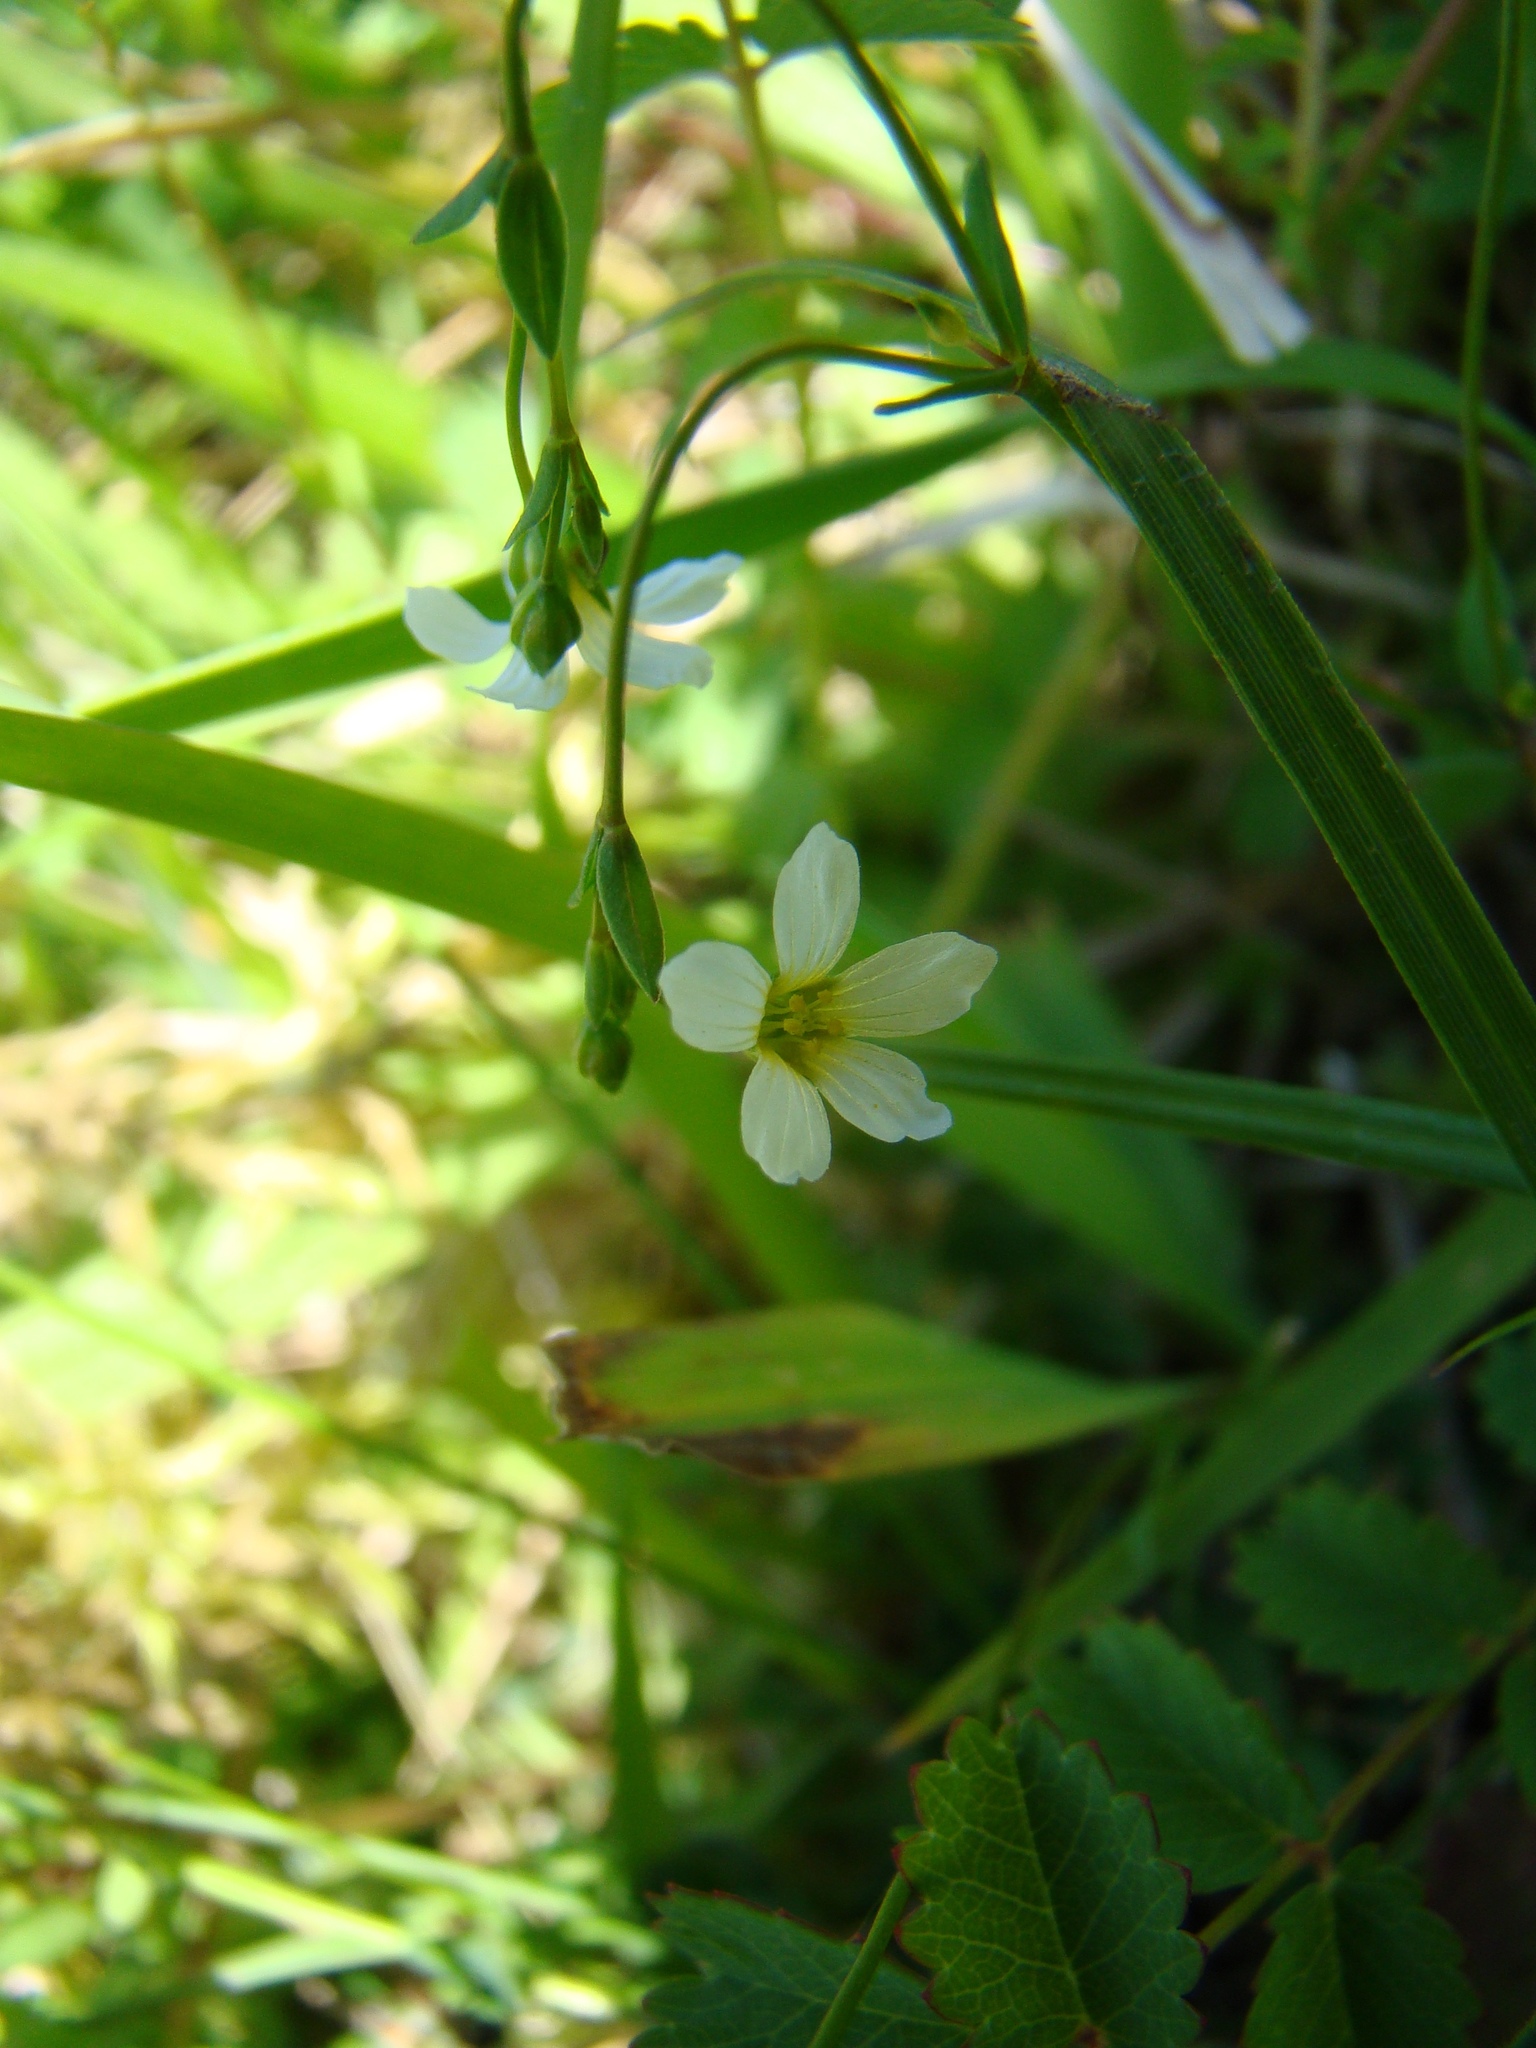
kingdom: Plantae
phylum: Tracheophyta
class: Magnoliopsida
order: Malpighiales
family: Linaceae
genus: Linum
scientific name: Linum catharticum
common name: Fairy flax
